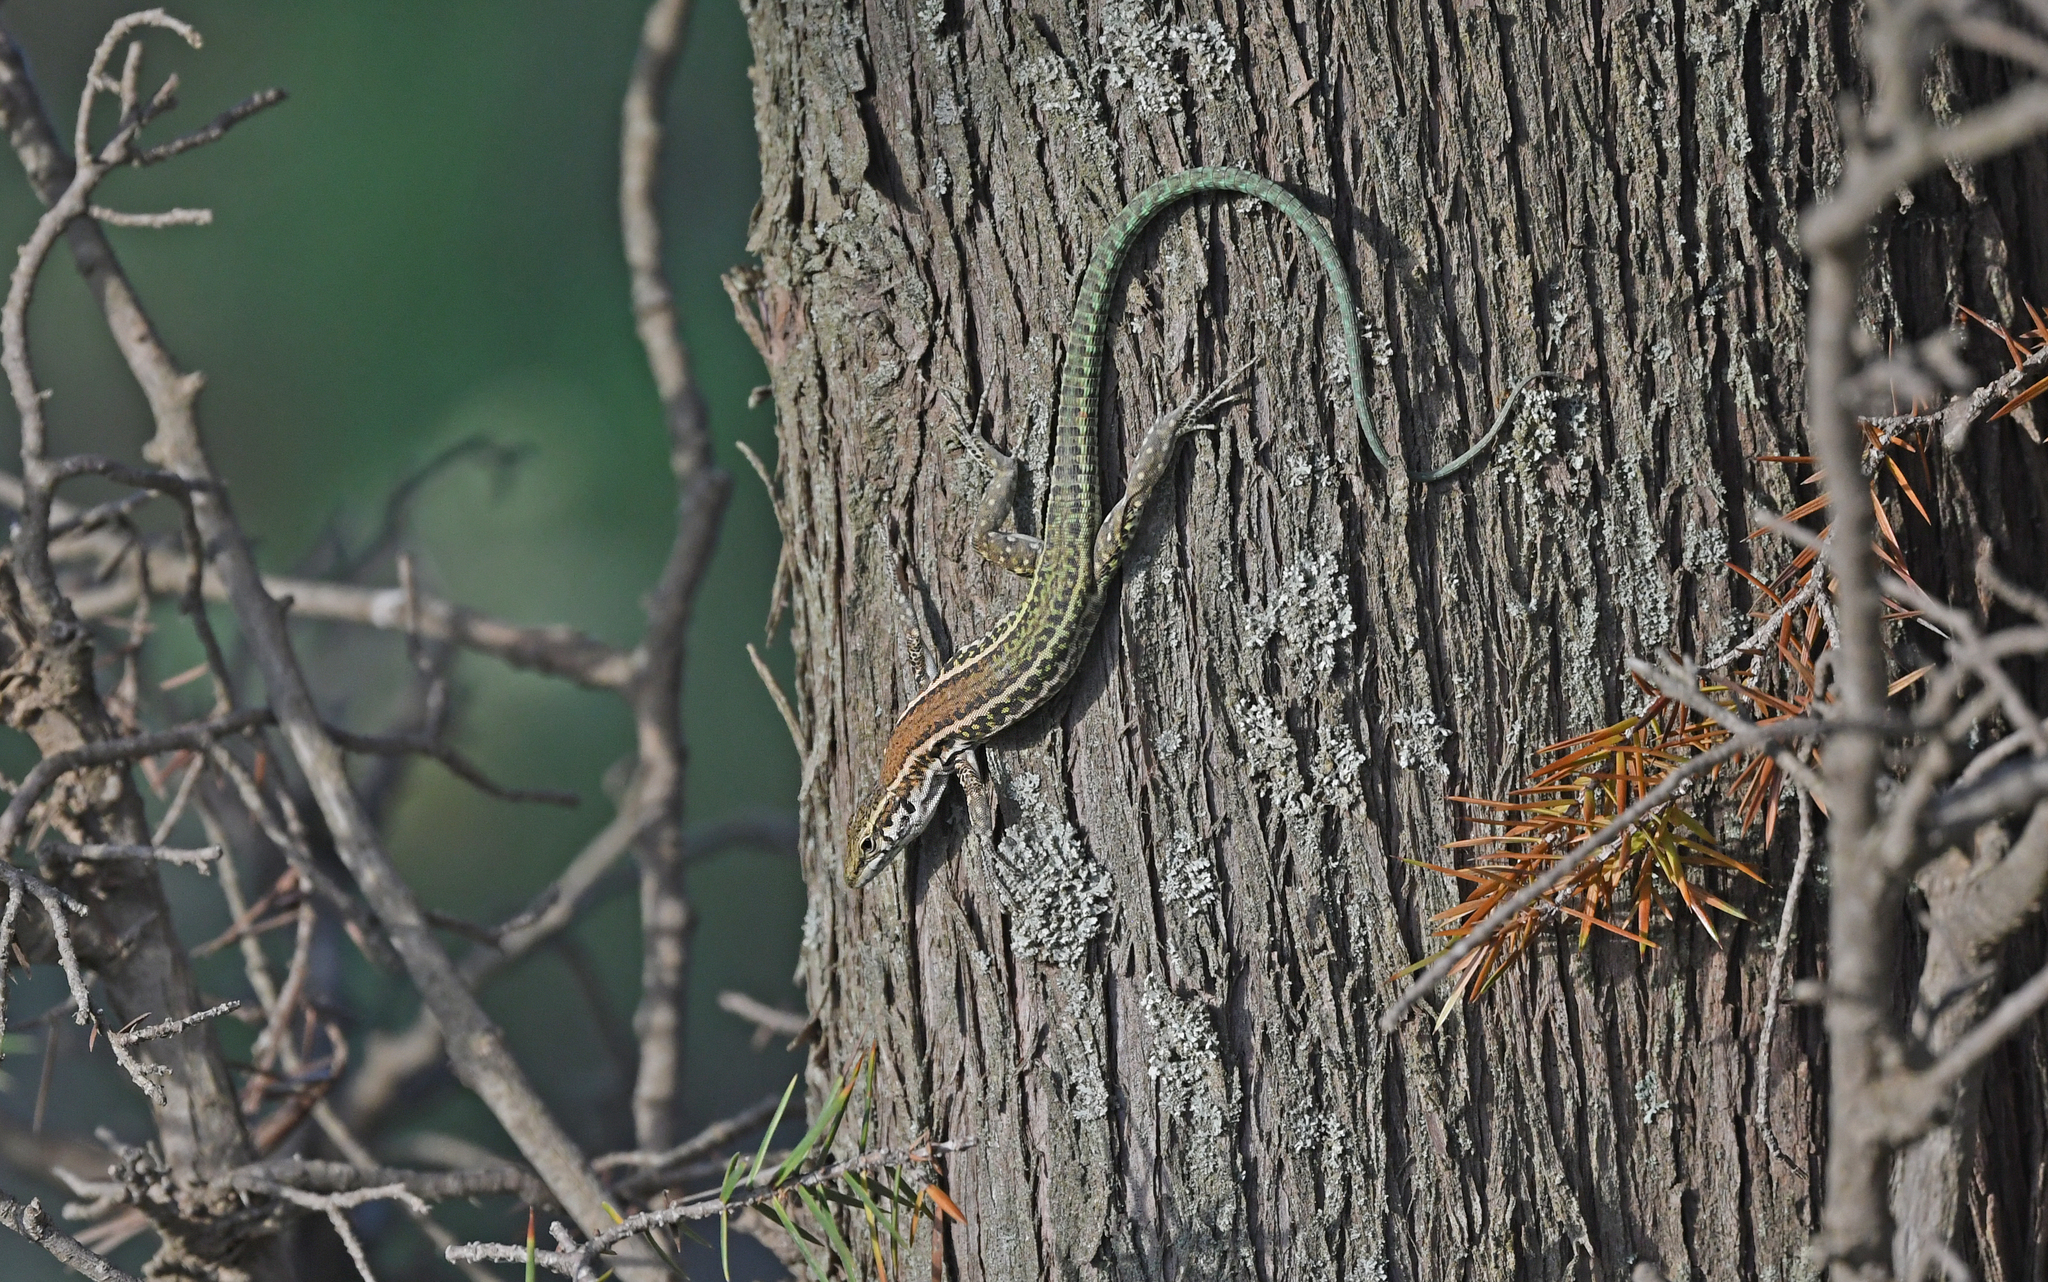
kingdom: Animalia
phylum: Chordata
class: Squamata
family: Lacertidae
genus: Podarcis
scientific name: Podarcis tiliguerta
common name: Tyrrhenian wall lizard
